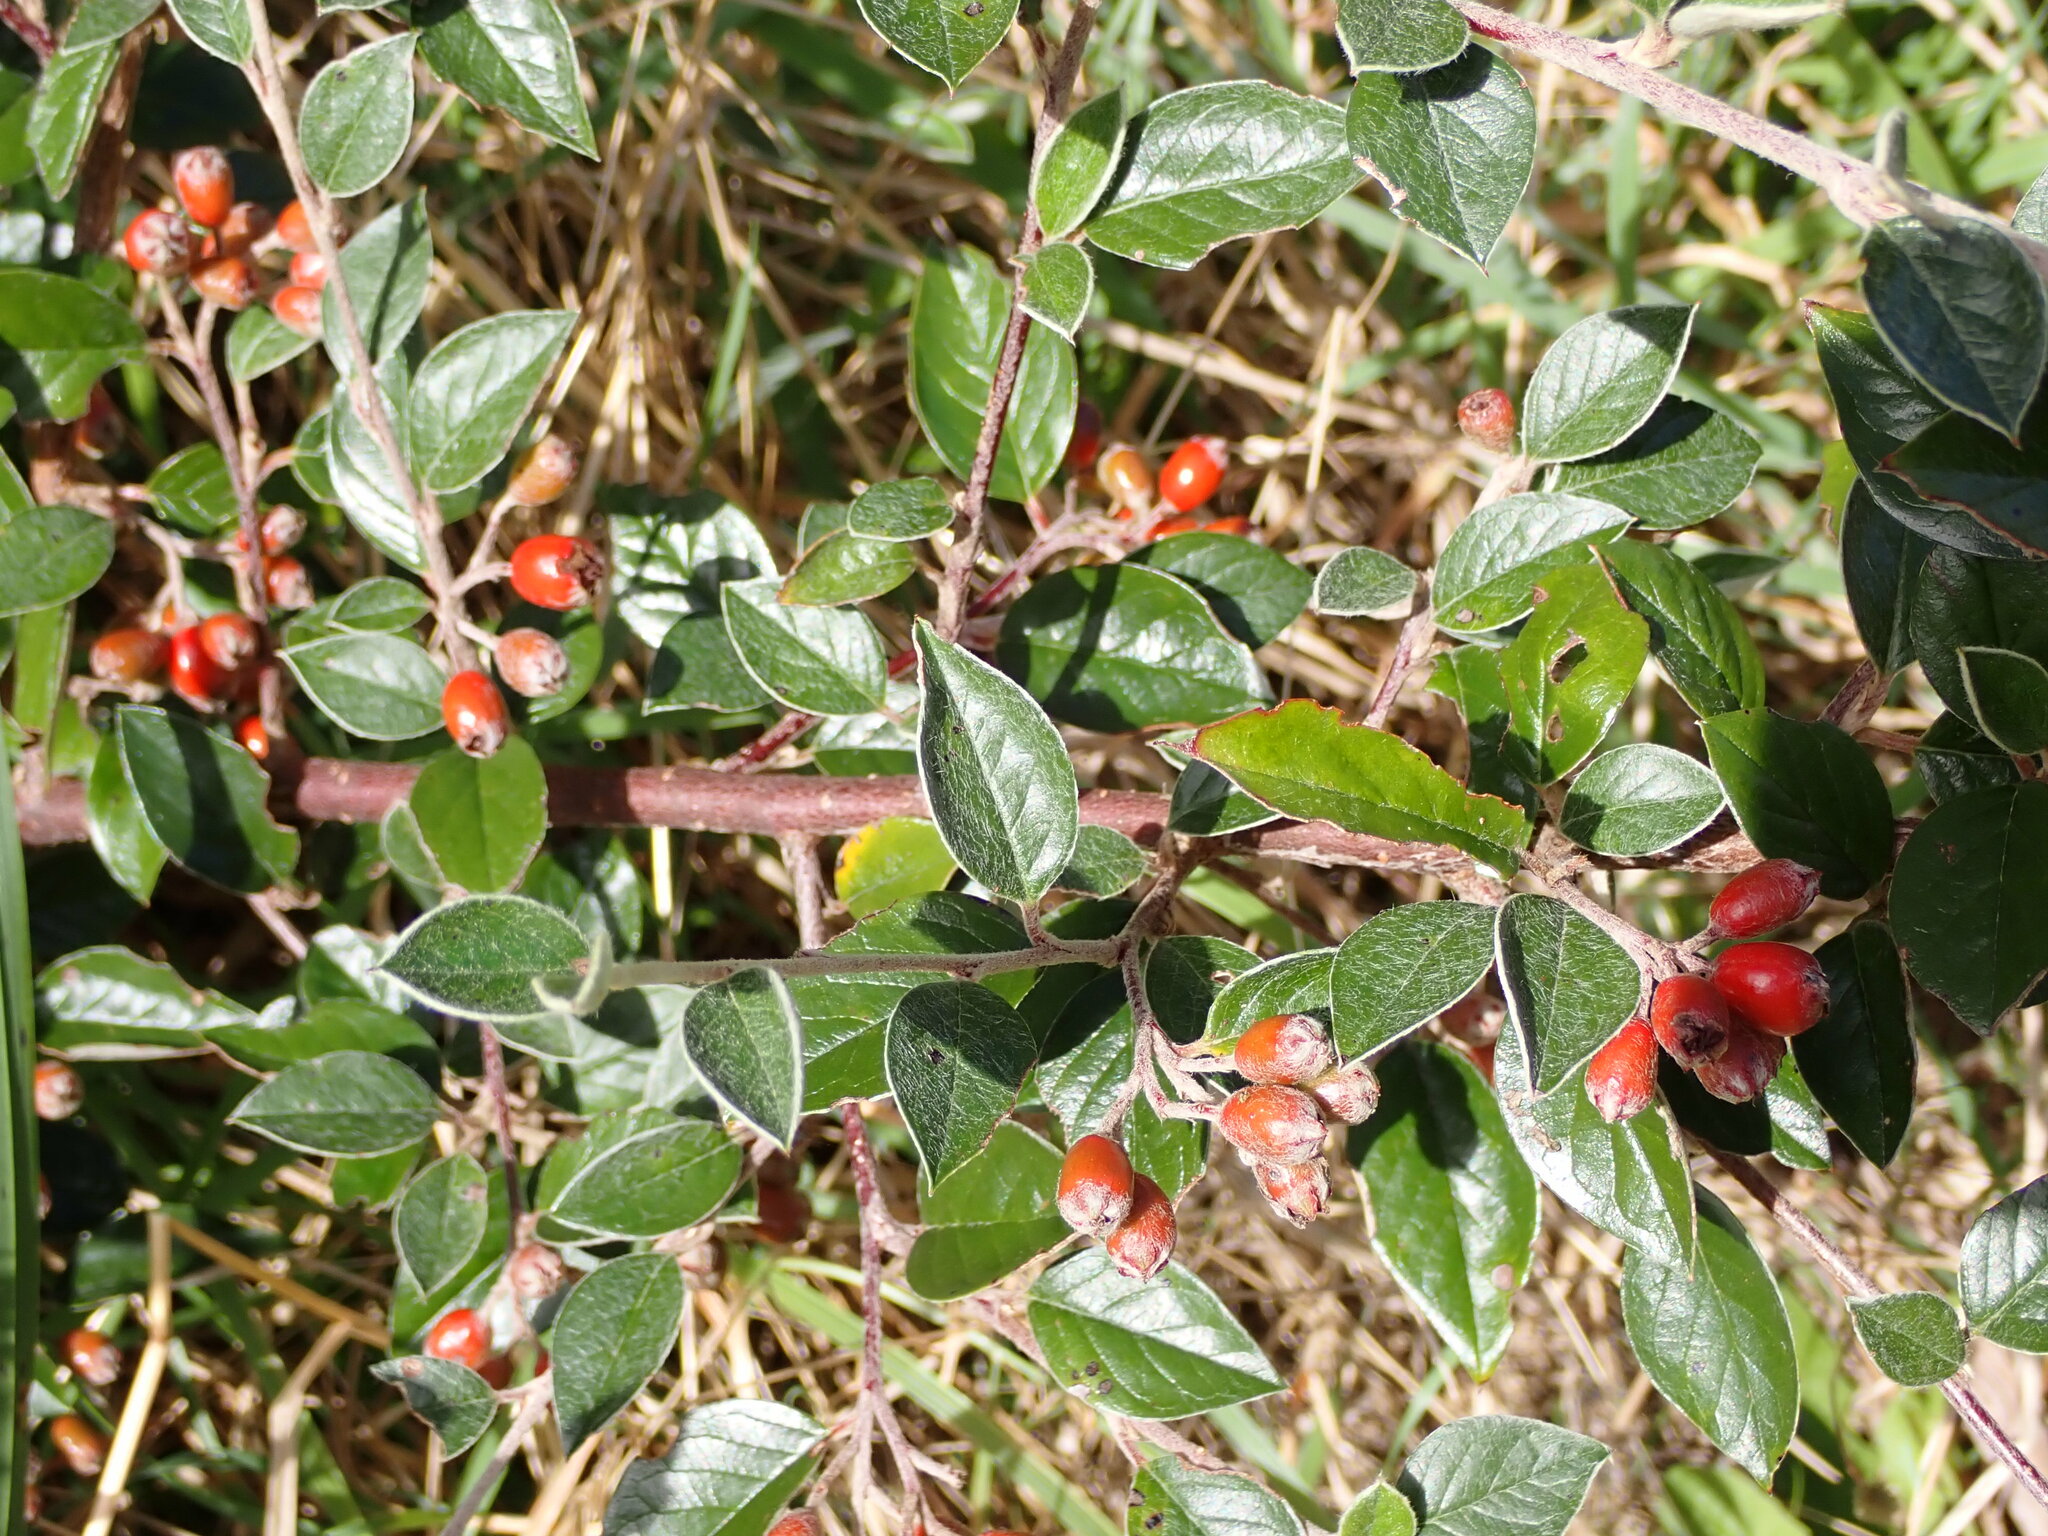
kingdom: Plantae
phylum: Tracheophyta
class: Magnoliopsida
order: Rosales
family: Rosaceae
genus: Cotoneaster
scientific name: Cotoneaster franchetii
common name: Franchet's cotoneaster
